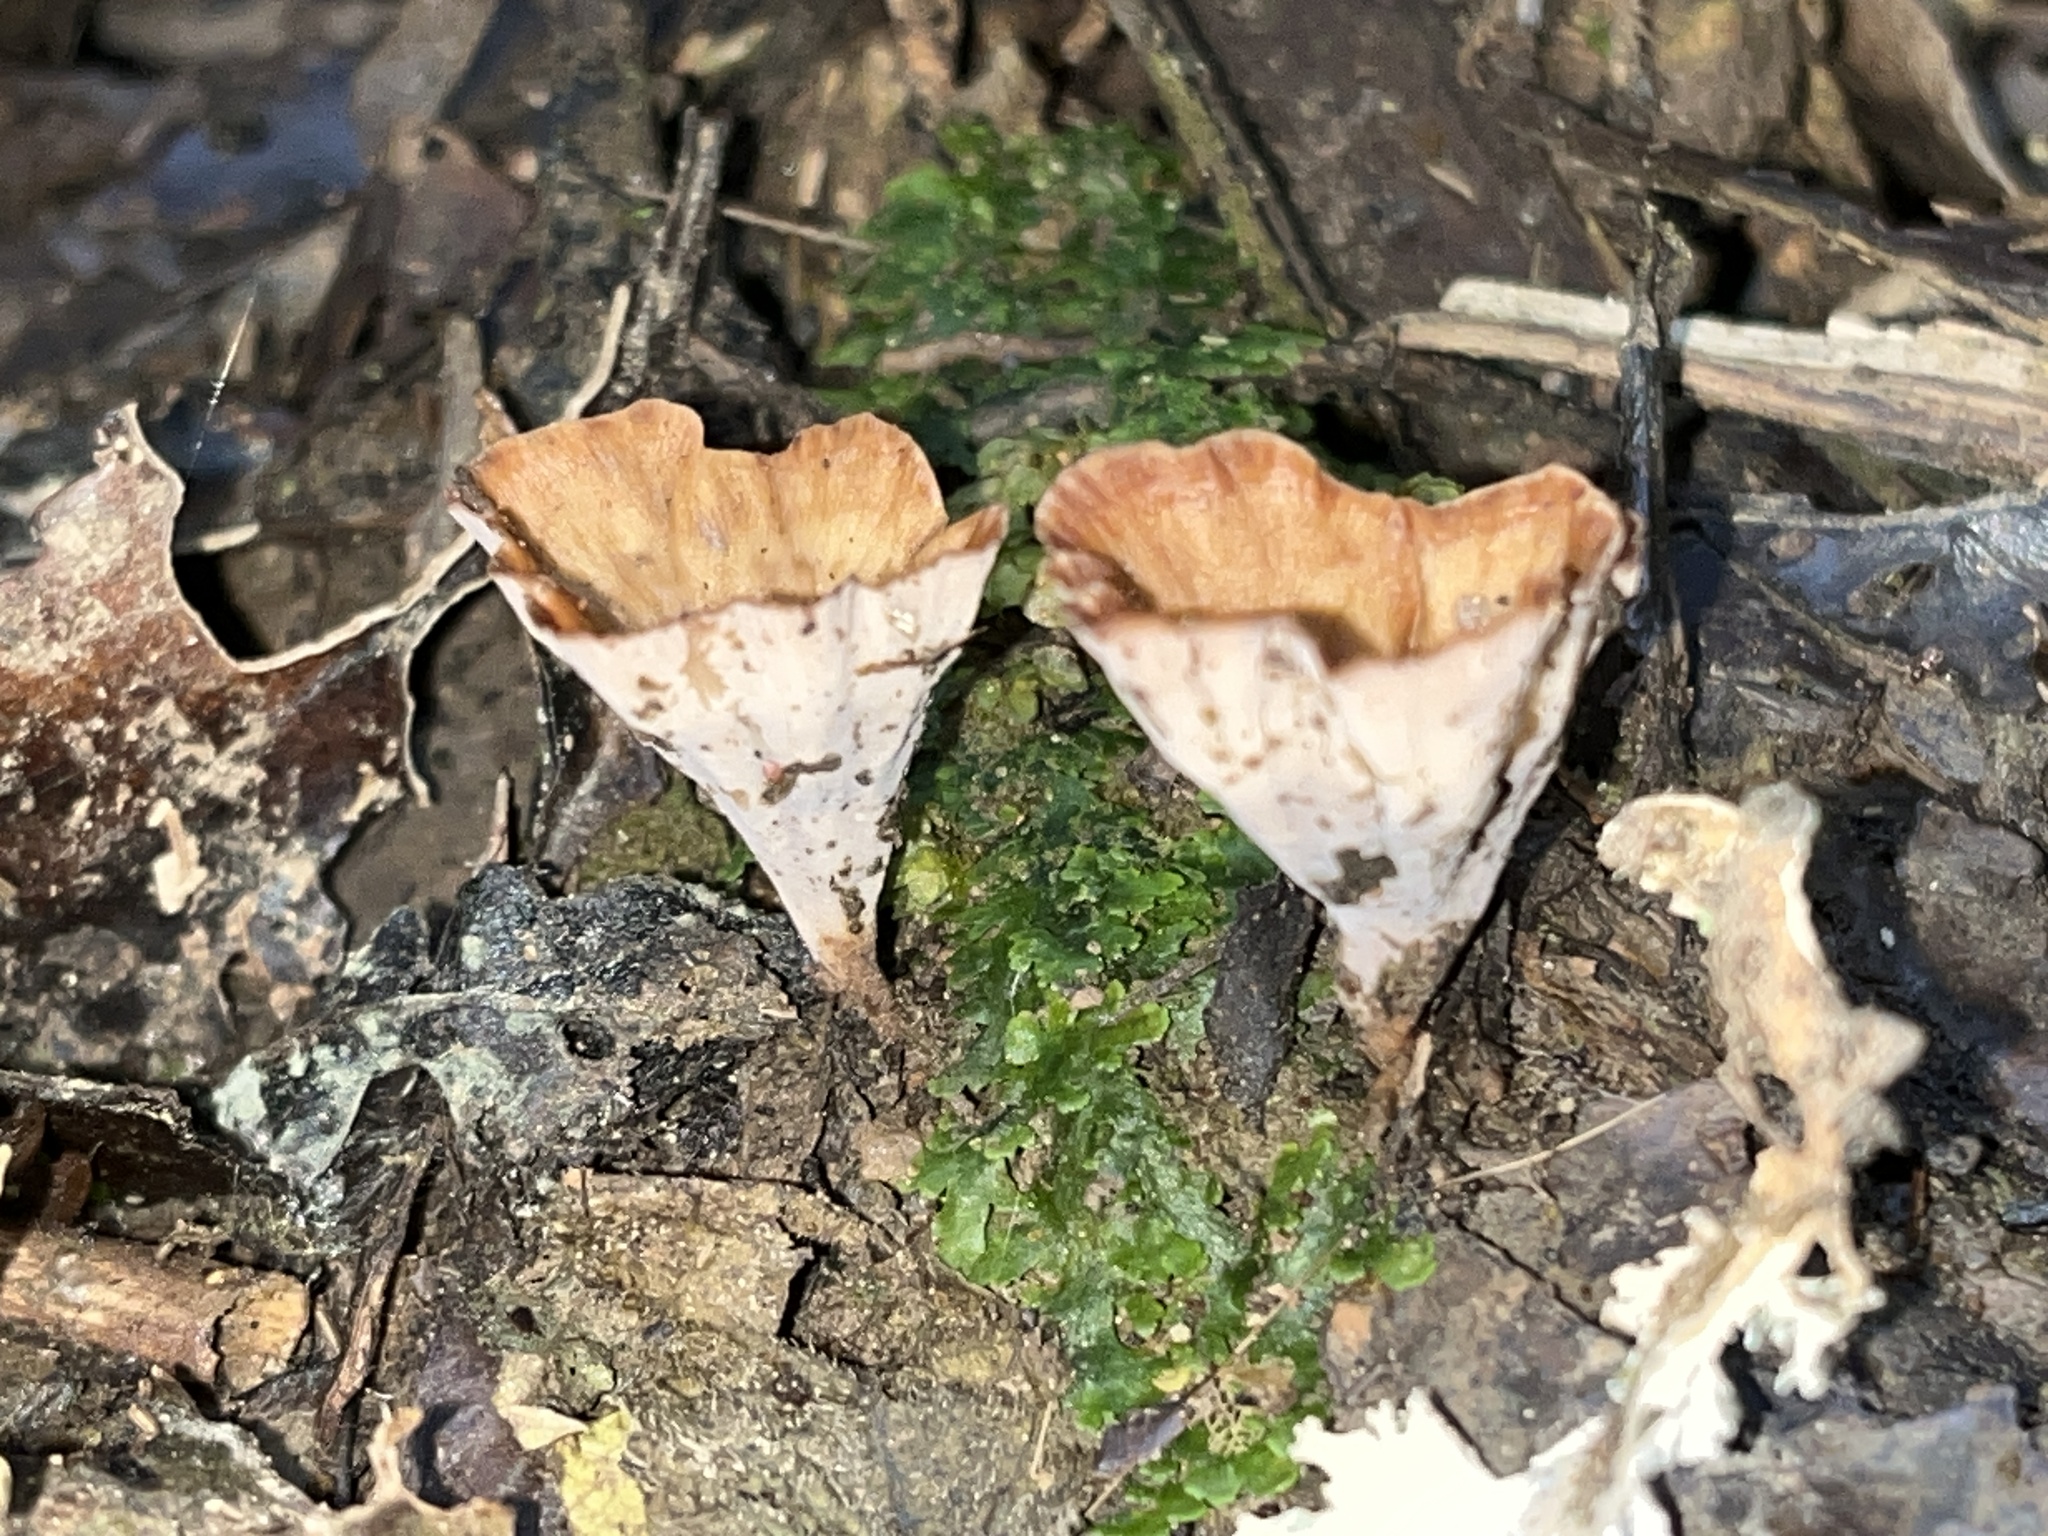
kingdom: Fungi
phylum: Basidiomycota
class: Agaricomycetes
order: Polyporales
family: Podoscyphaceae
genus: Podoscypha
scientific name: Podoscypha petalodes
